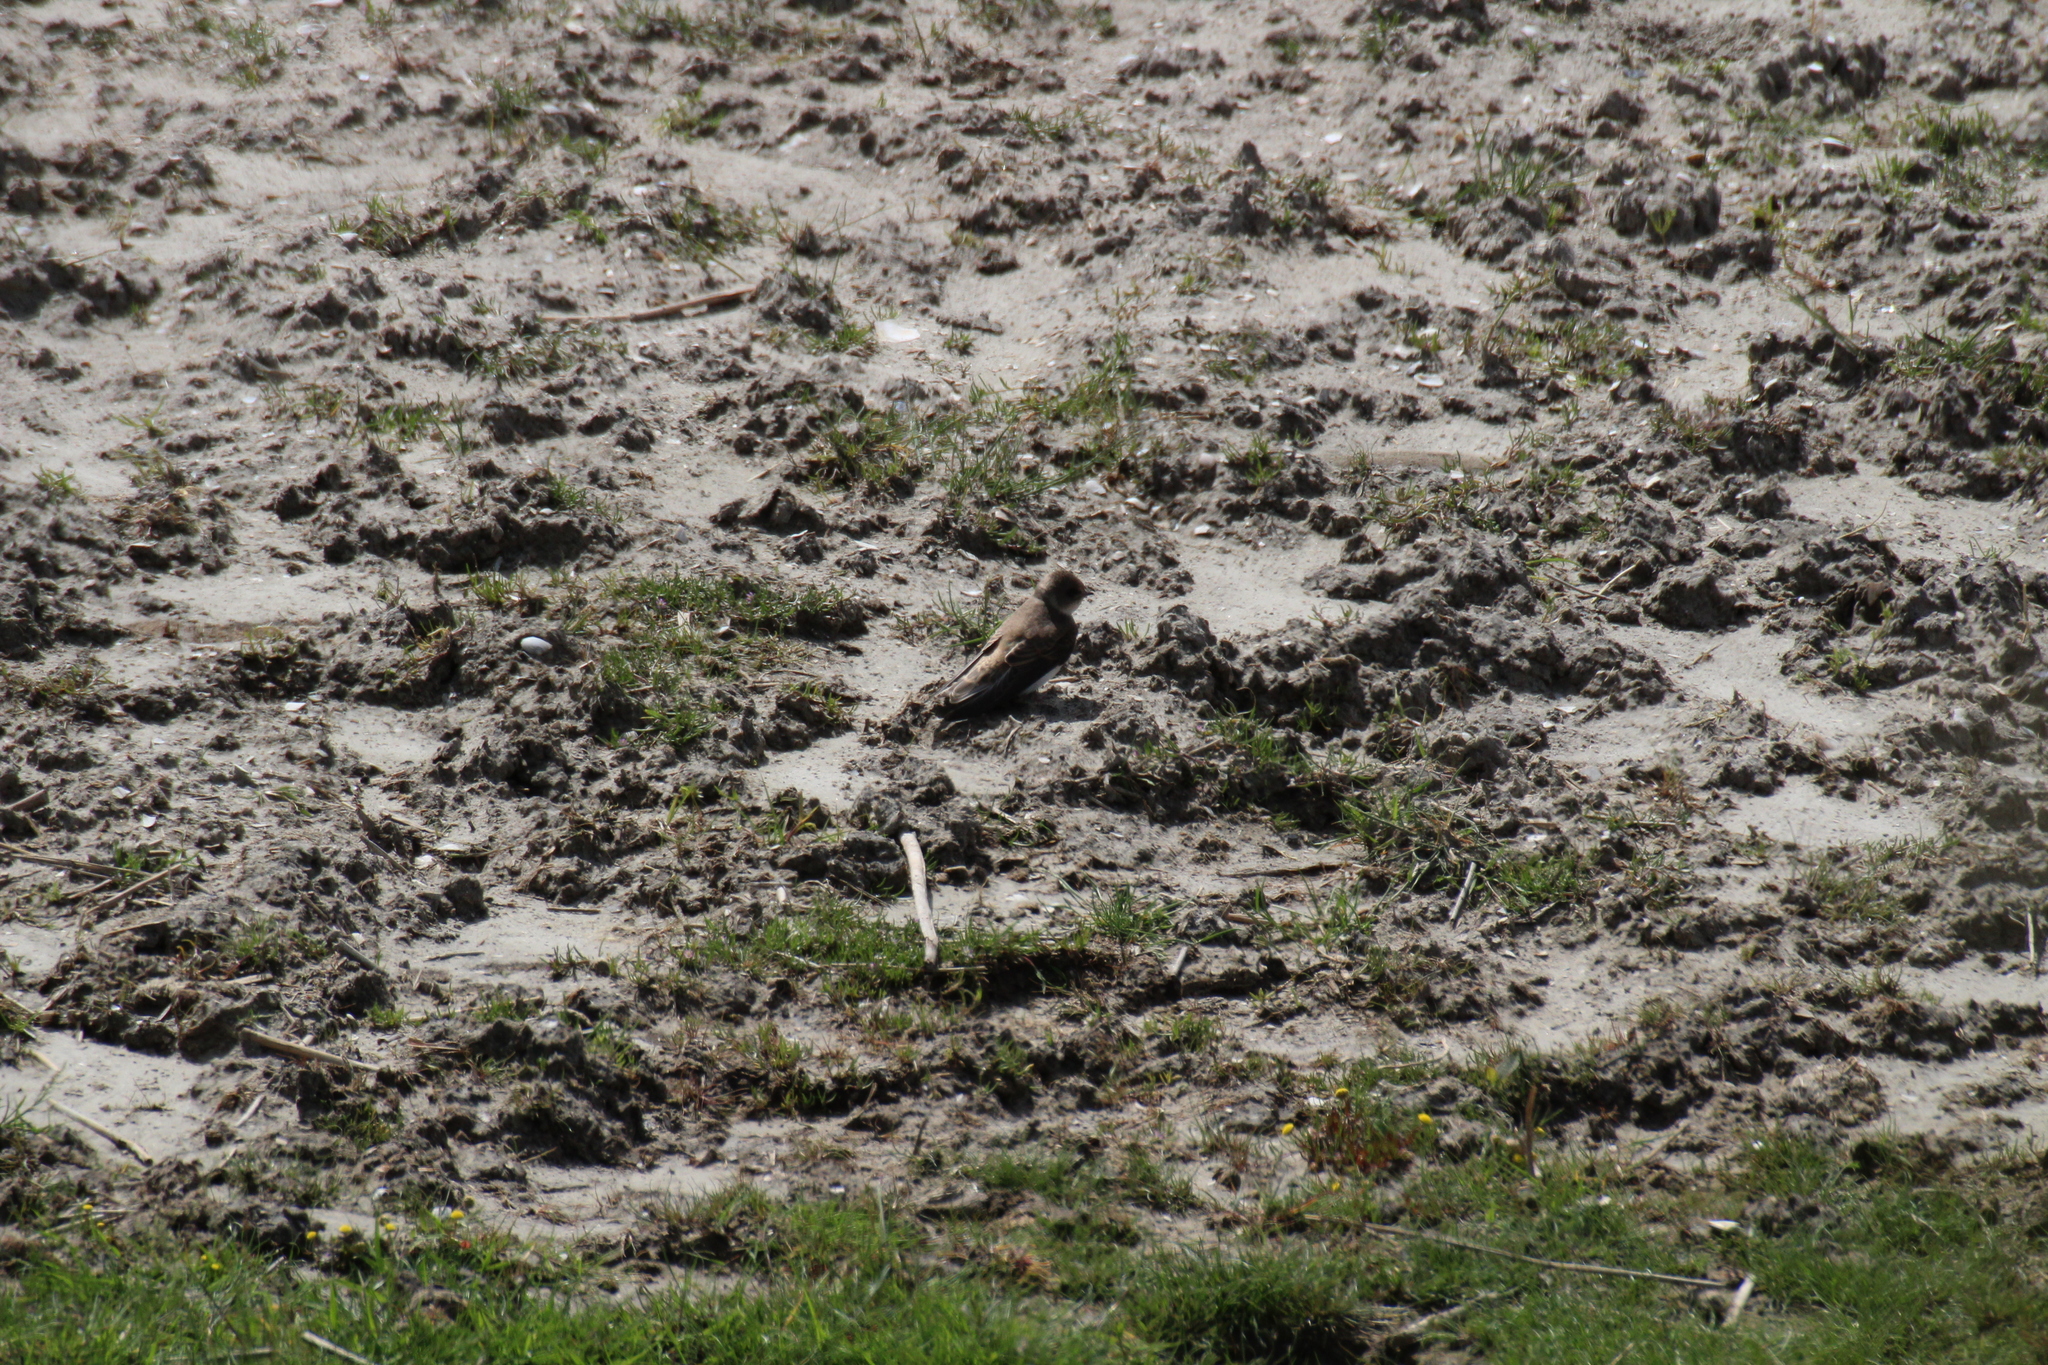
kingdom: Animalia
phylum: Chordata
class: Aves
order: Passeriformes
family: Hirundinidae
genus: Riparia
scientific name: Riparia riparia
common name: Sand martin
